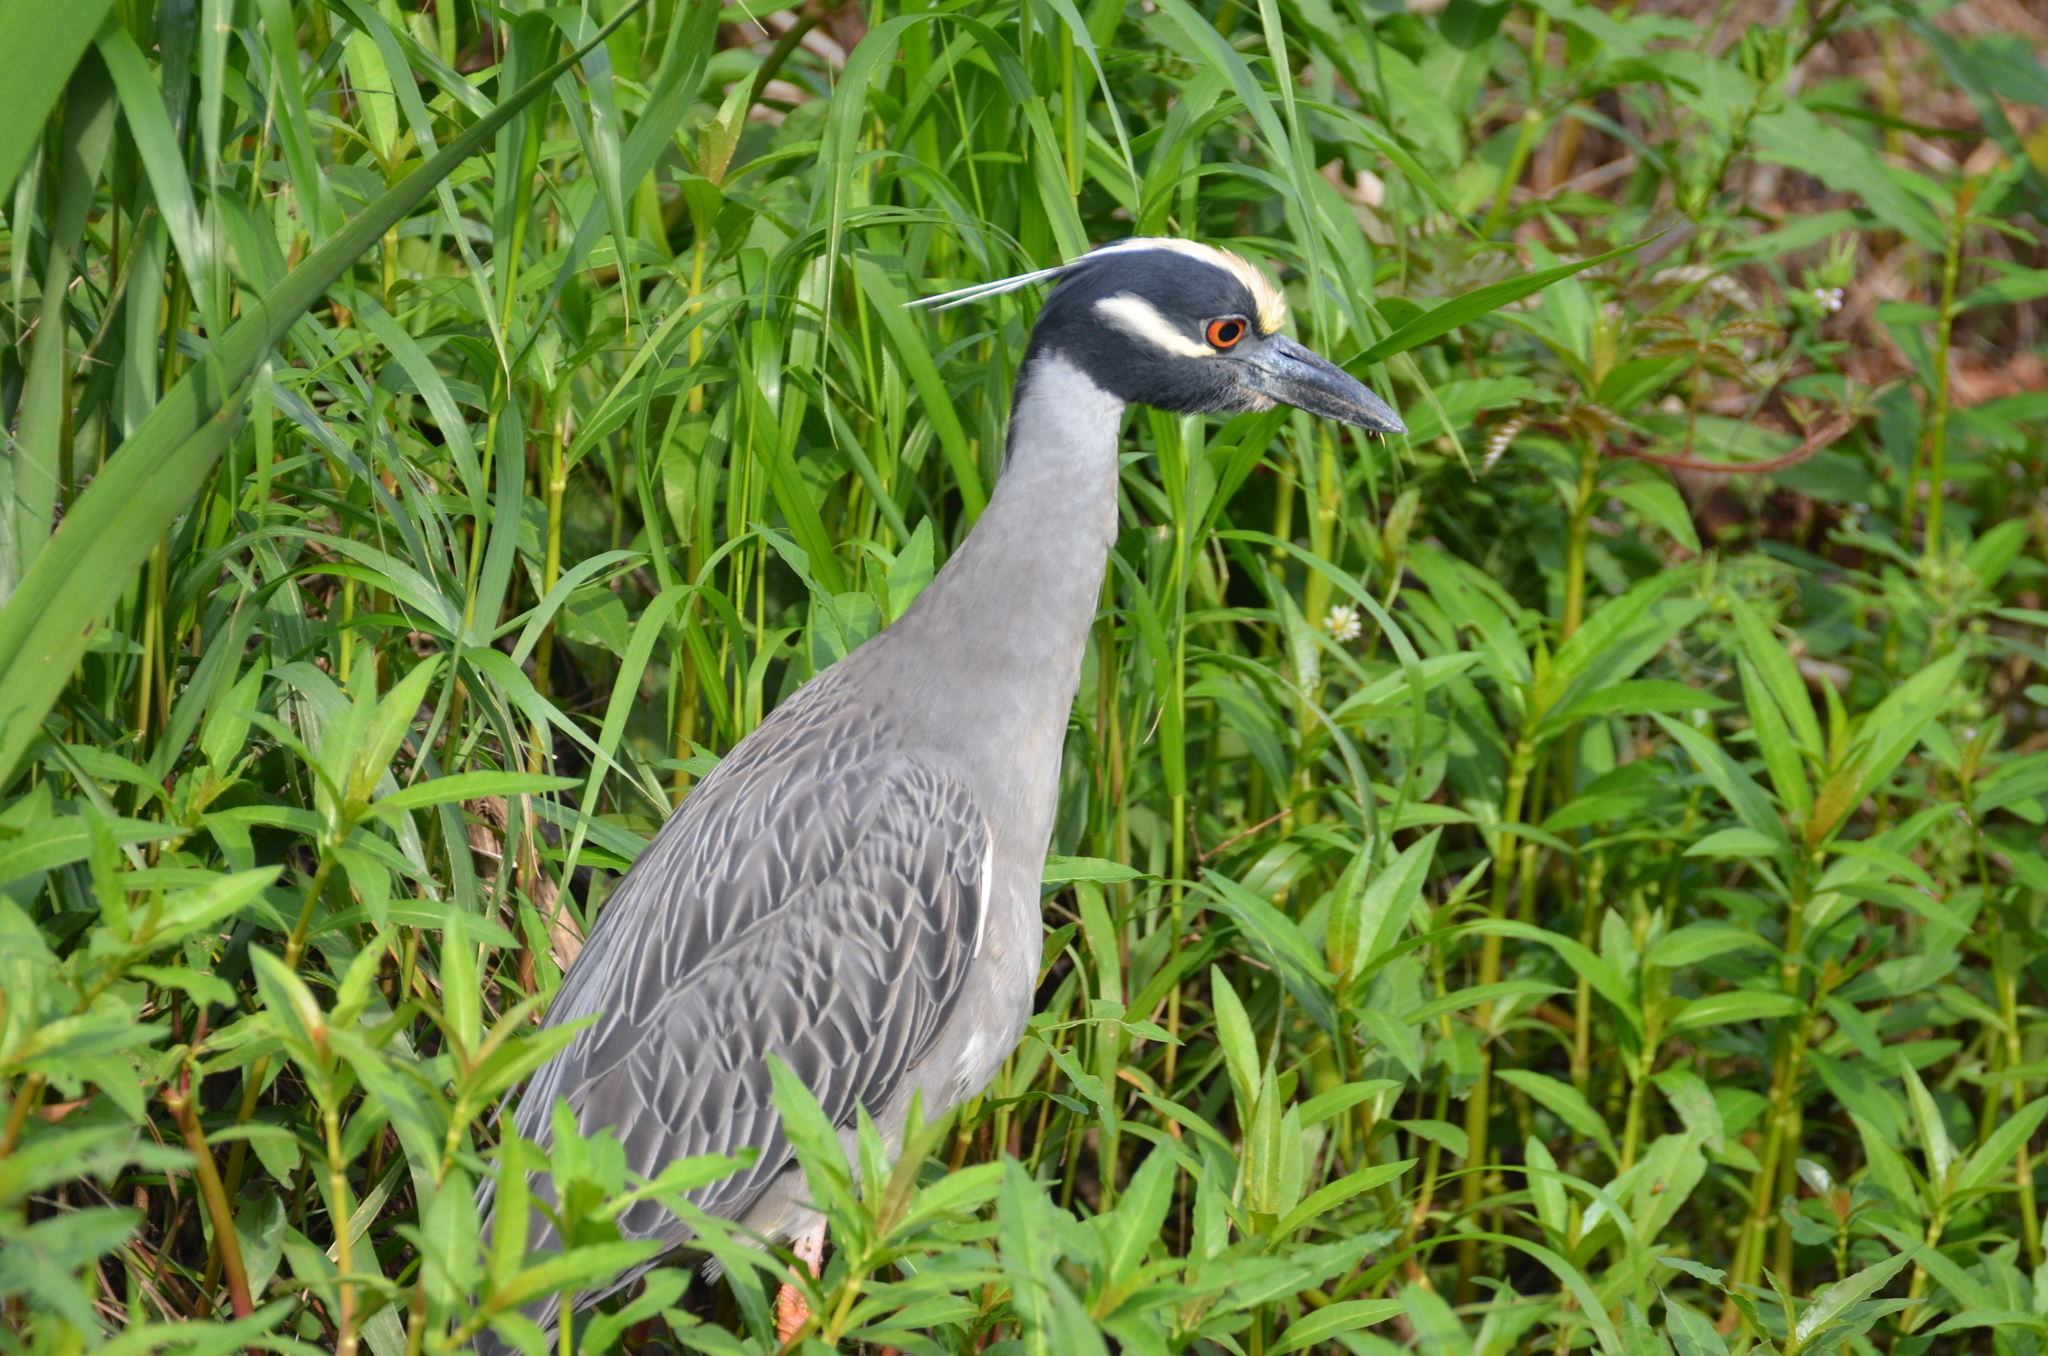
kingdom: Animalia
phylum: Chordata
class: Aves
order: Pelecaniformes
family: Ardeidae
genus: Nyctanassa
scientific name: Nyctanassa violacea
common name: Yellow-crowned night heron
